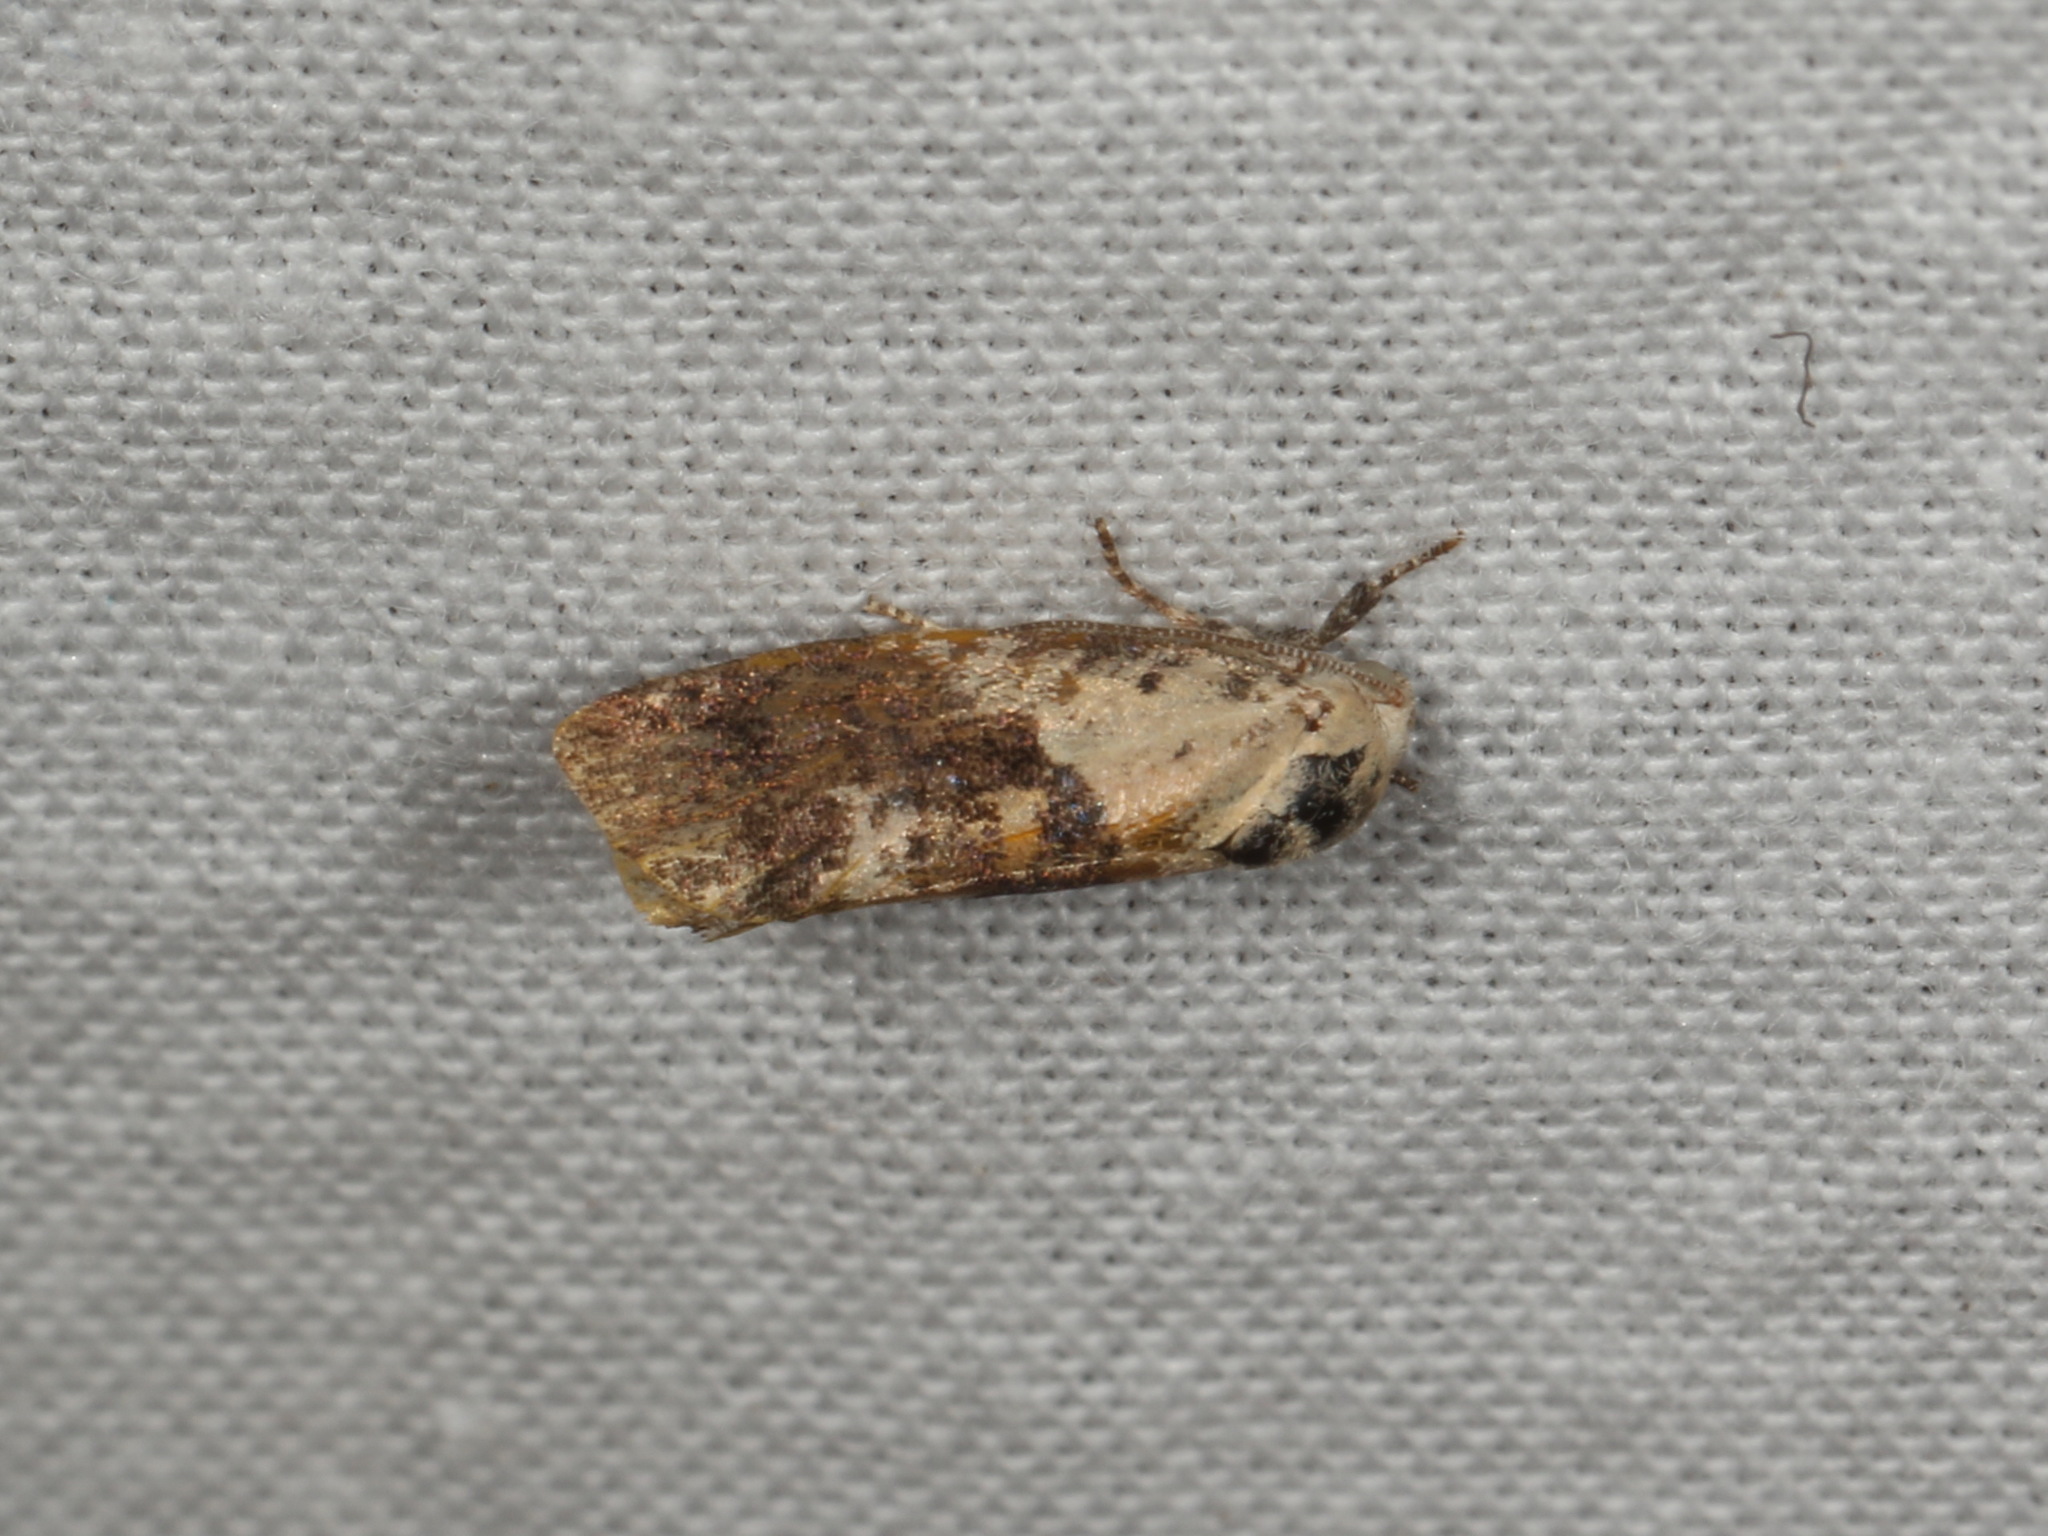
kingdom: Animalia
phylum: Arthropoda
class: Insecta
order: Lepidoptera
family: Depressariidae
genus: Hypertropha
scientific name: Hypertropha chlaenota
